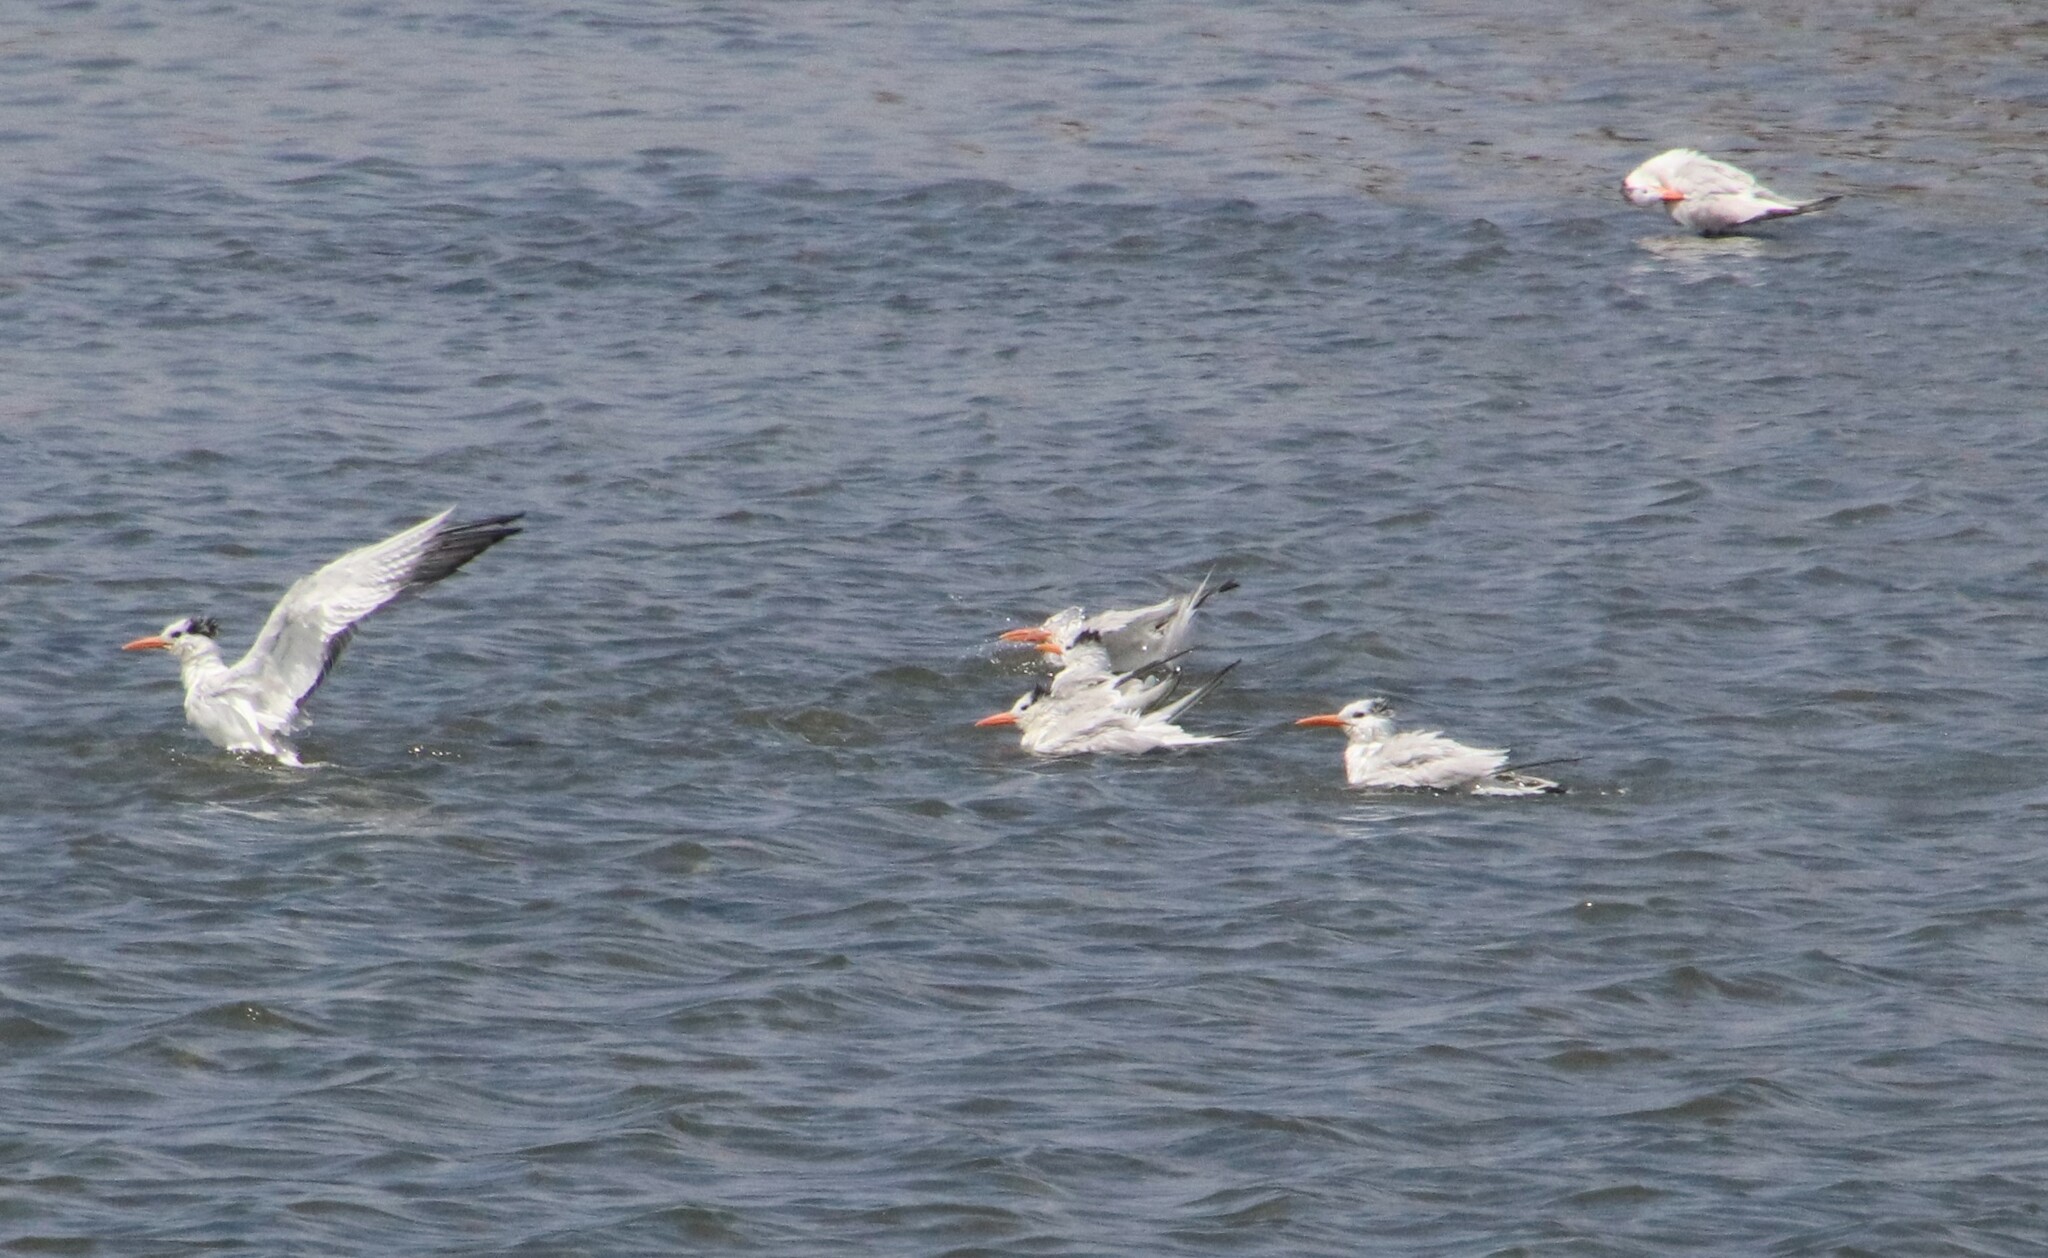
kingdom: Animalia
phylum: Chordata
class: Aves
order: Charadriiformes
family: Laridae
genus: Thalasseus
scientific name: Thalasseus maximus
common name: Royal tern
